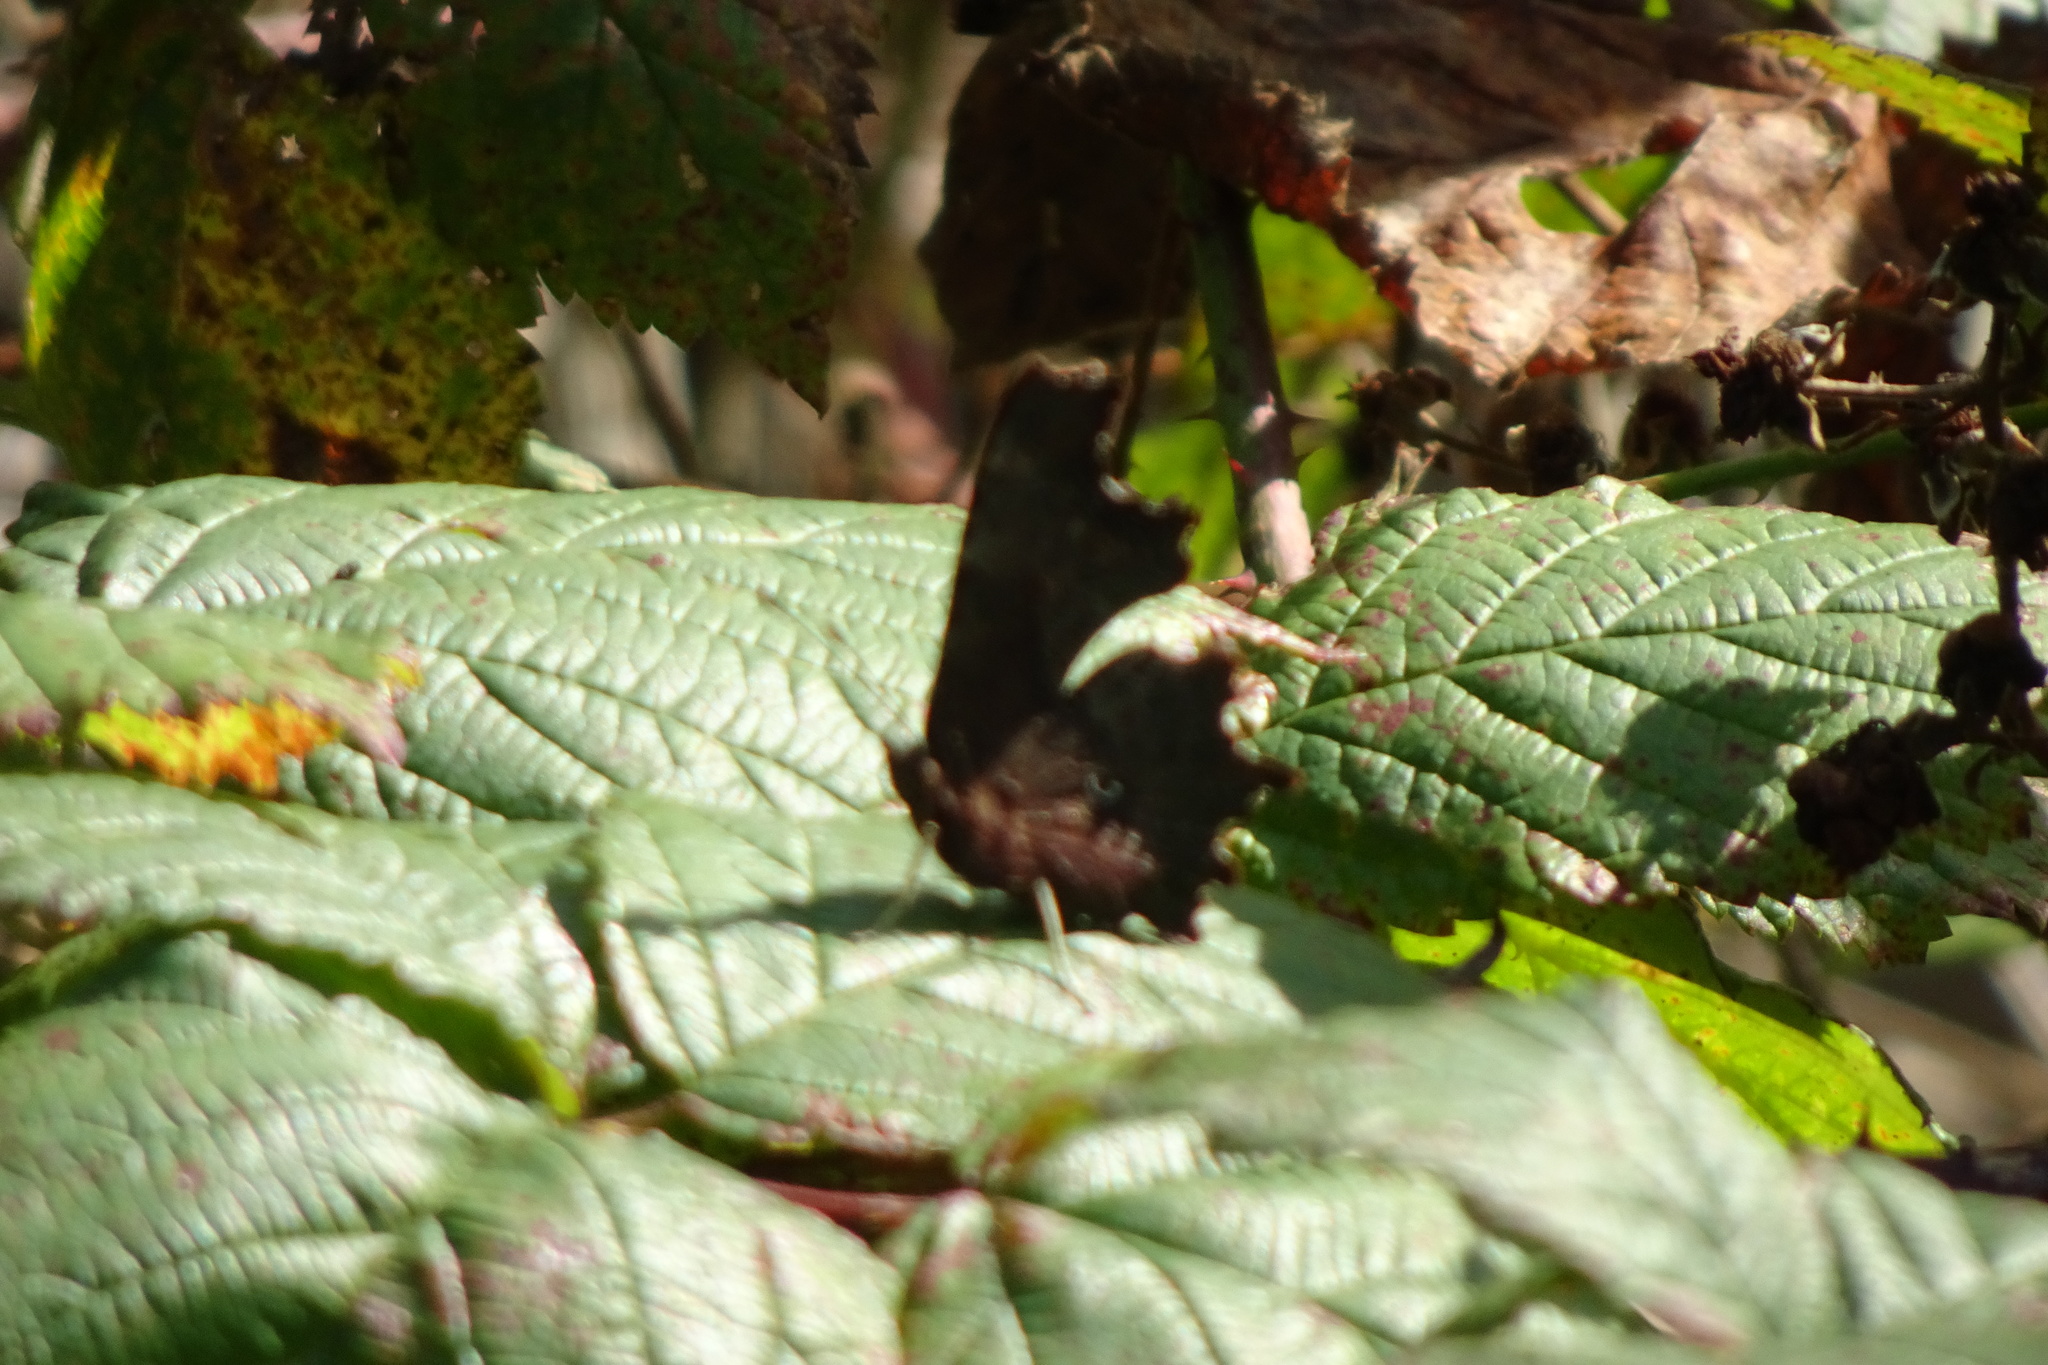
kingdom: Animalia
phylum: Arthropoda
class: Insecta
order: Lepidoptera
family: Nymphalidae
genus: Polygonia
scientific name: Polygonia c-album
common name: Comma
